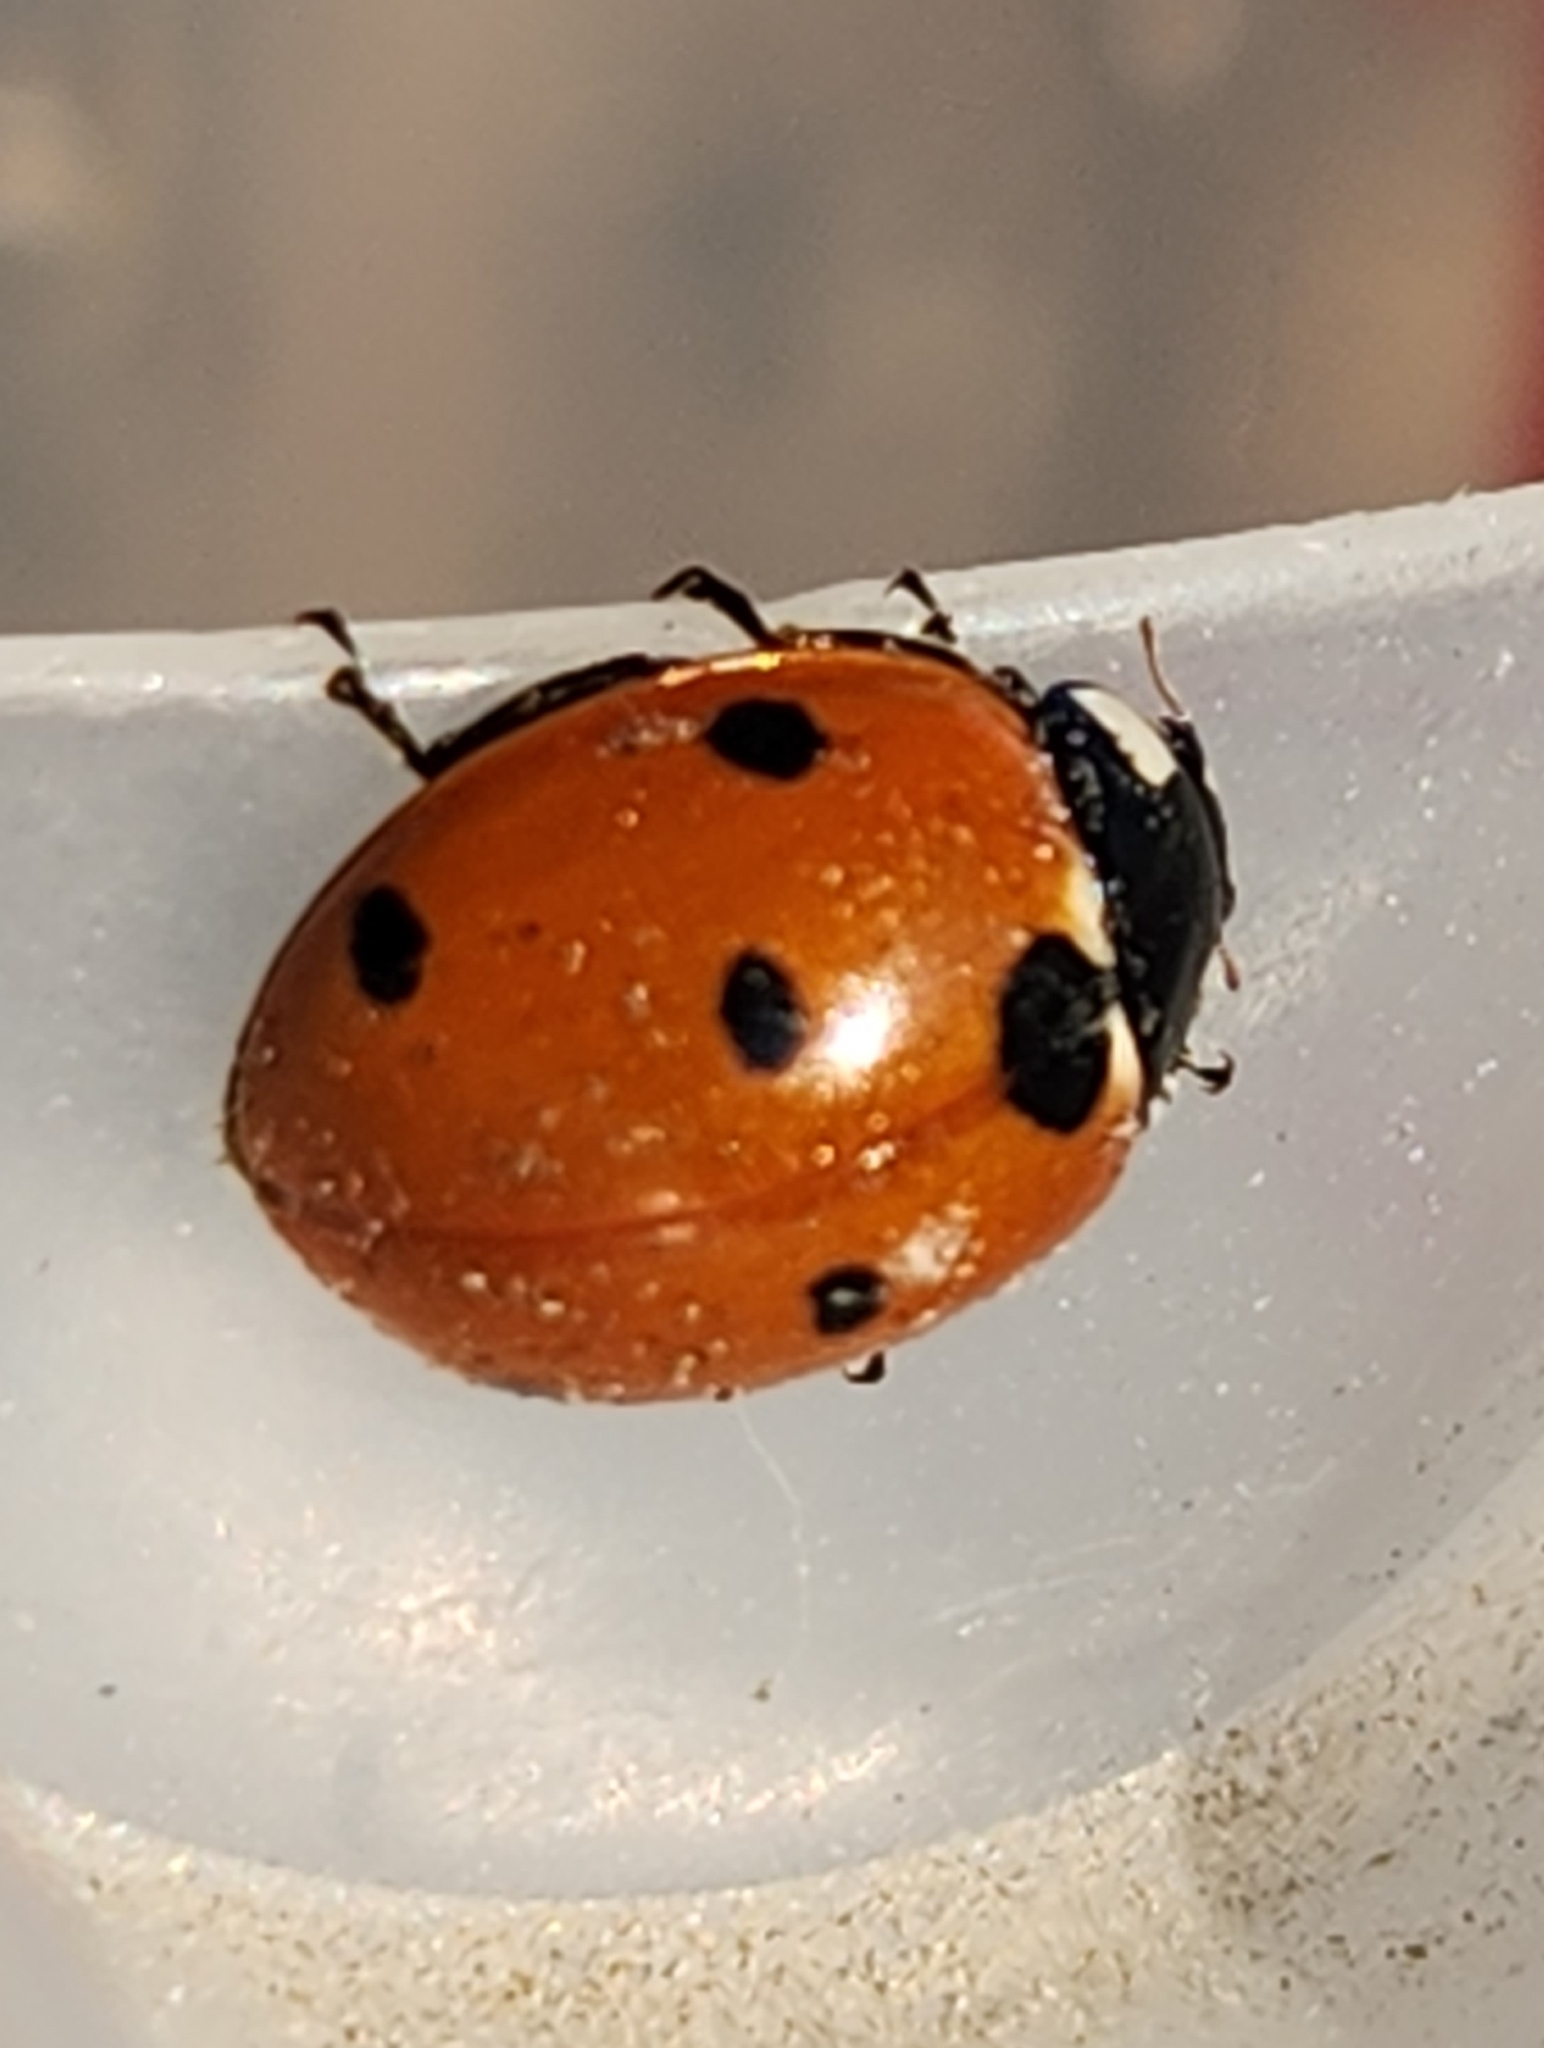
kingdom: Animalia
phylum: Arthropoda
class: Insecta
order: Coleoptera
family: Coccinellidae
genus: Coccinella
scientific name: Coccinella septempunctata
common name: Sevenspotted lady beetle
